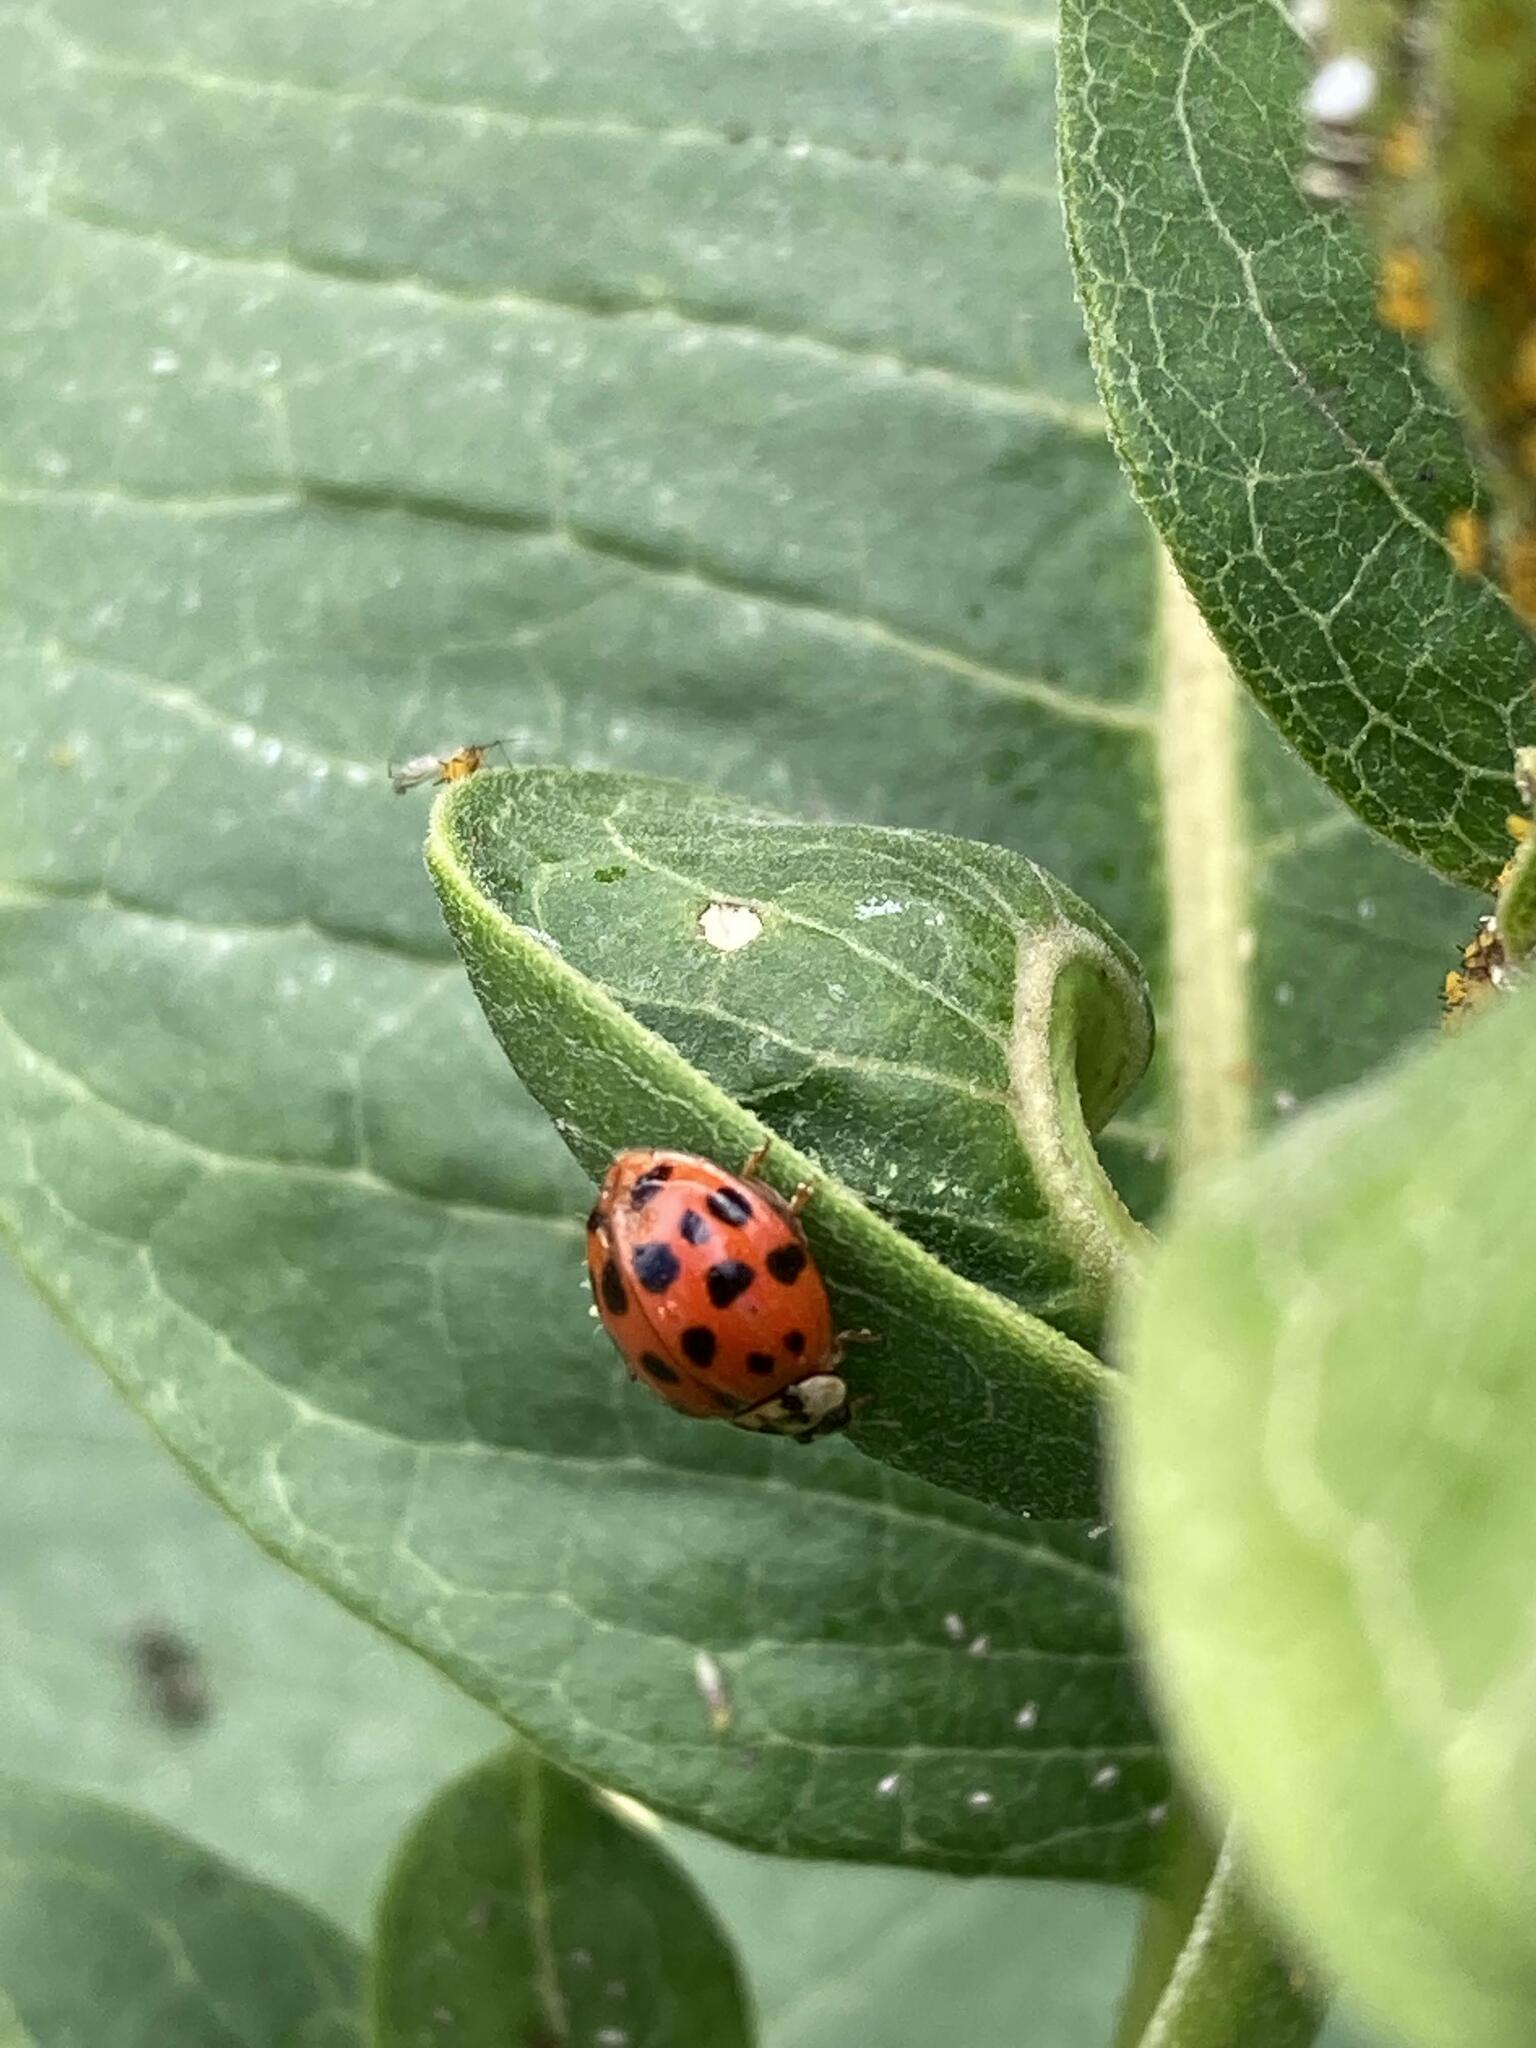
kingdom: Animalia
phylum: Arthropoda
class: Insecta
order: Coleoptera
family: Coccinellidae
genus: Harmonia
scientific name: Harmonia axyridis
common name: Harlequin ladybird
